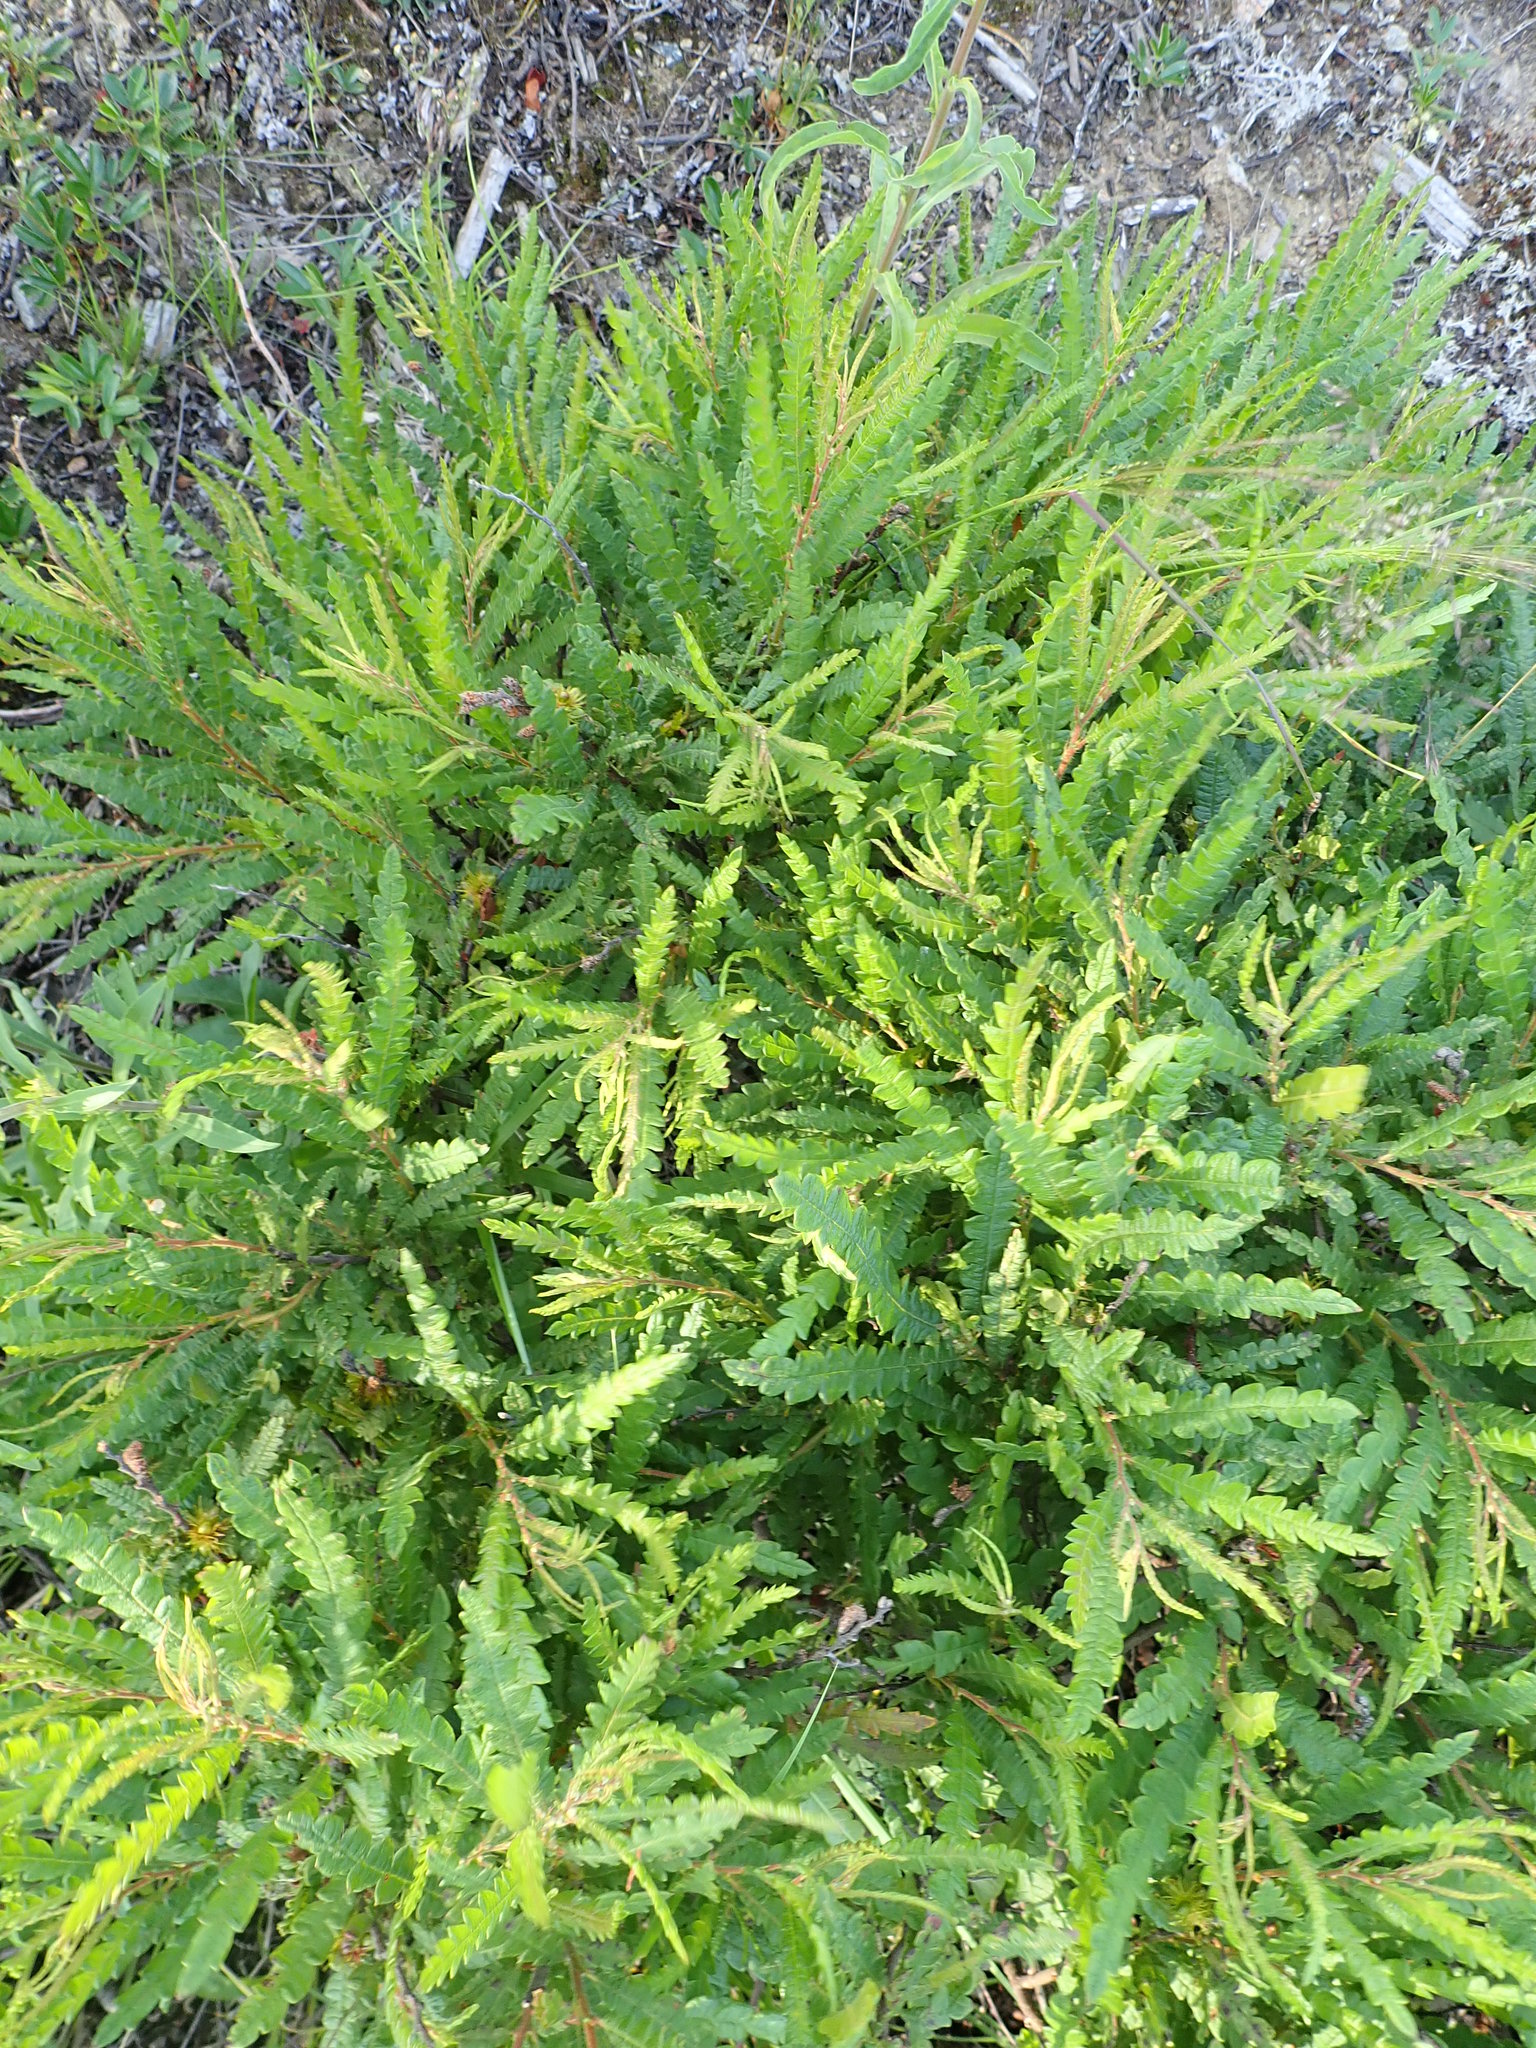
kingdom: Plantae
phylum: Tracheophyta
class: Magnoliopsida
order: Fagales
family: Myricaceae
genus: Comptonia
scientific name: Comptonia peregrina
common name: Sweet-fern
